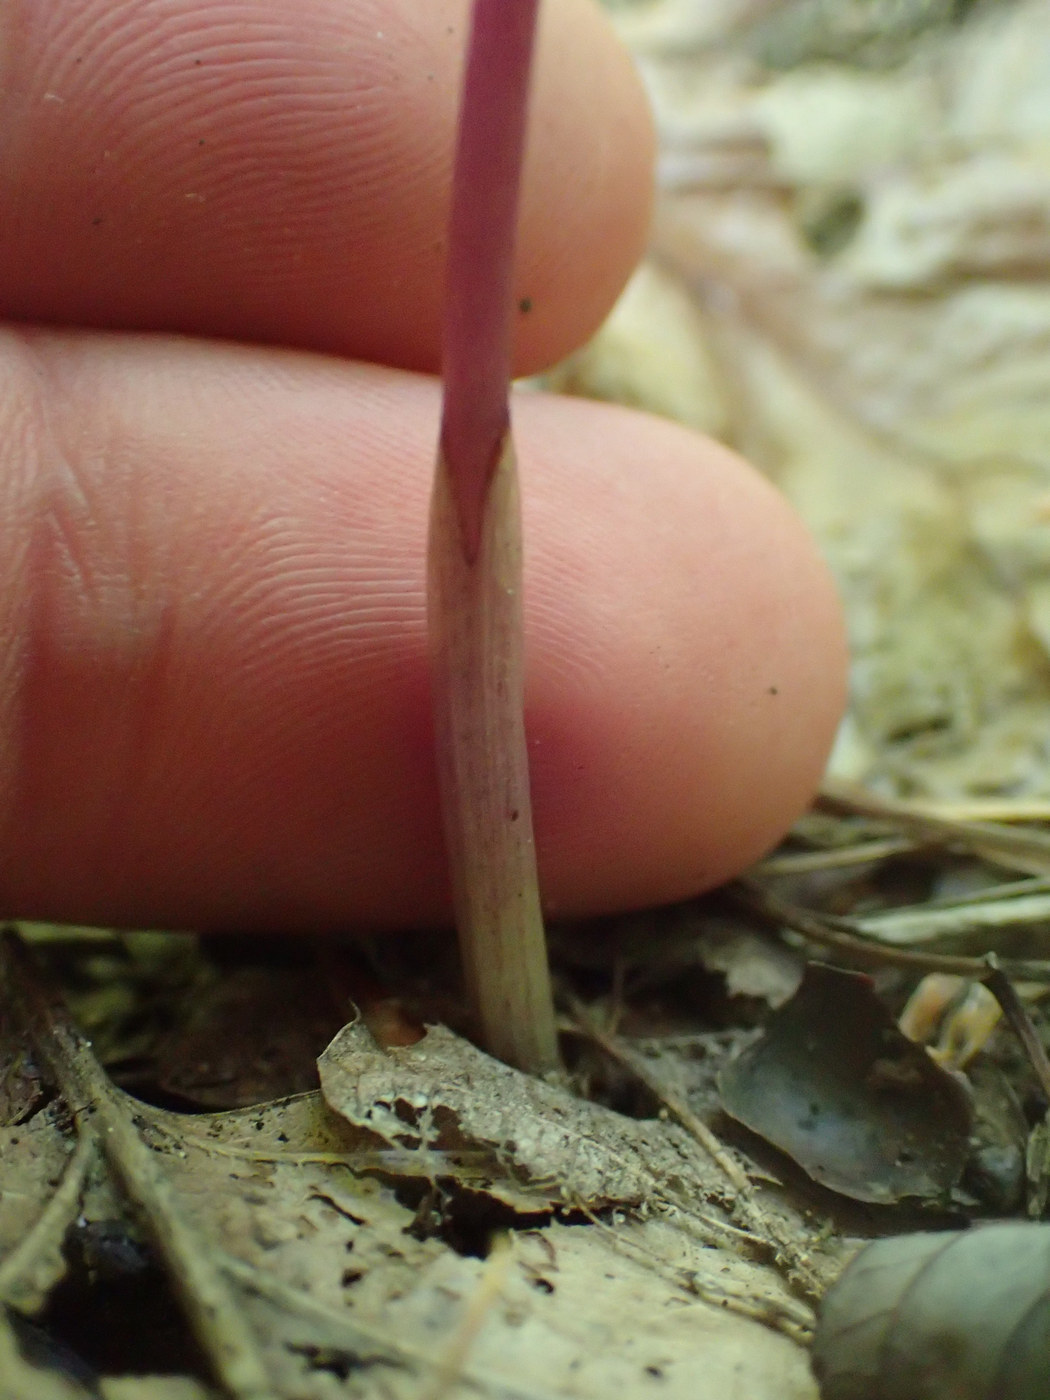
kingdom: Plantae
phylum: Tracheophyta
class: Liliopsida
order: Asparagales
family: Orchidaceae
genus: Corallorhiza
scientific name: Corallorhiza odontorhiza
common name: Autumn coralroot
